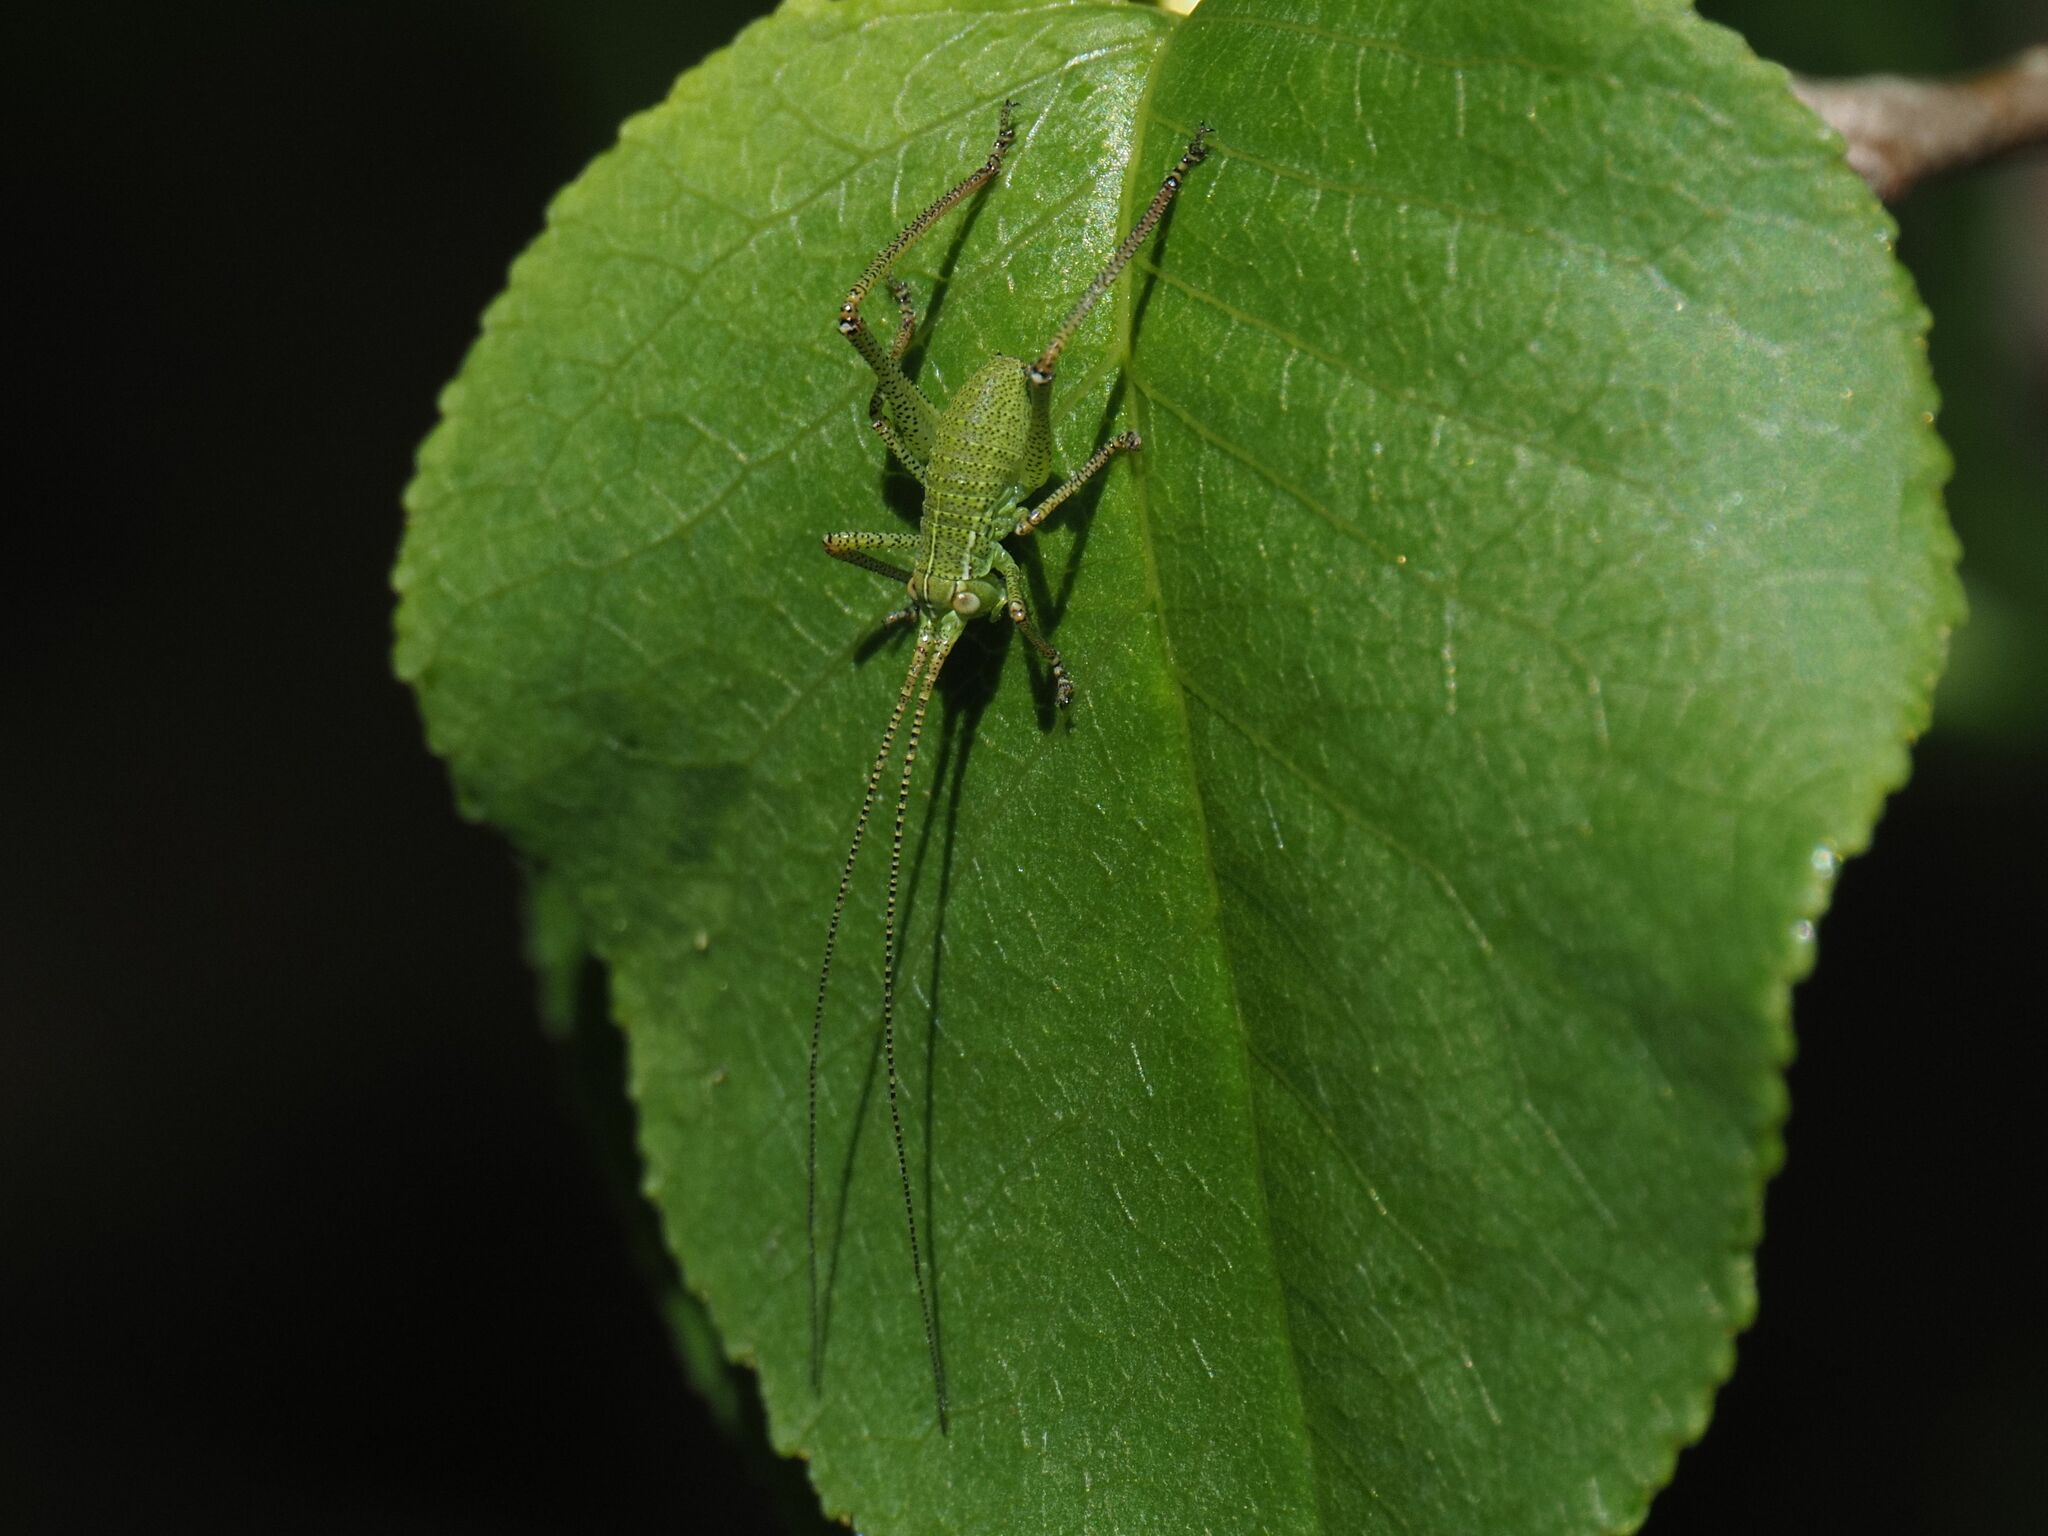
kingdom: Animalia
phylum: Arthropoda
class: Insecta
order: Orthoptera
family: Tettigoniidae
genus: Barbitistes
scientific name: Barbitistes serricauda
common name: Saw-tailed bush-cricket
